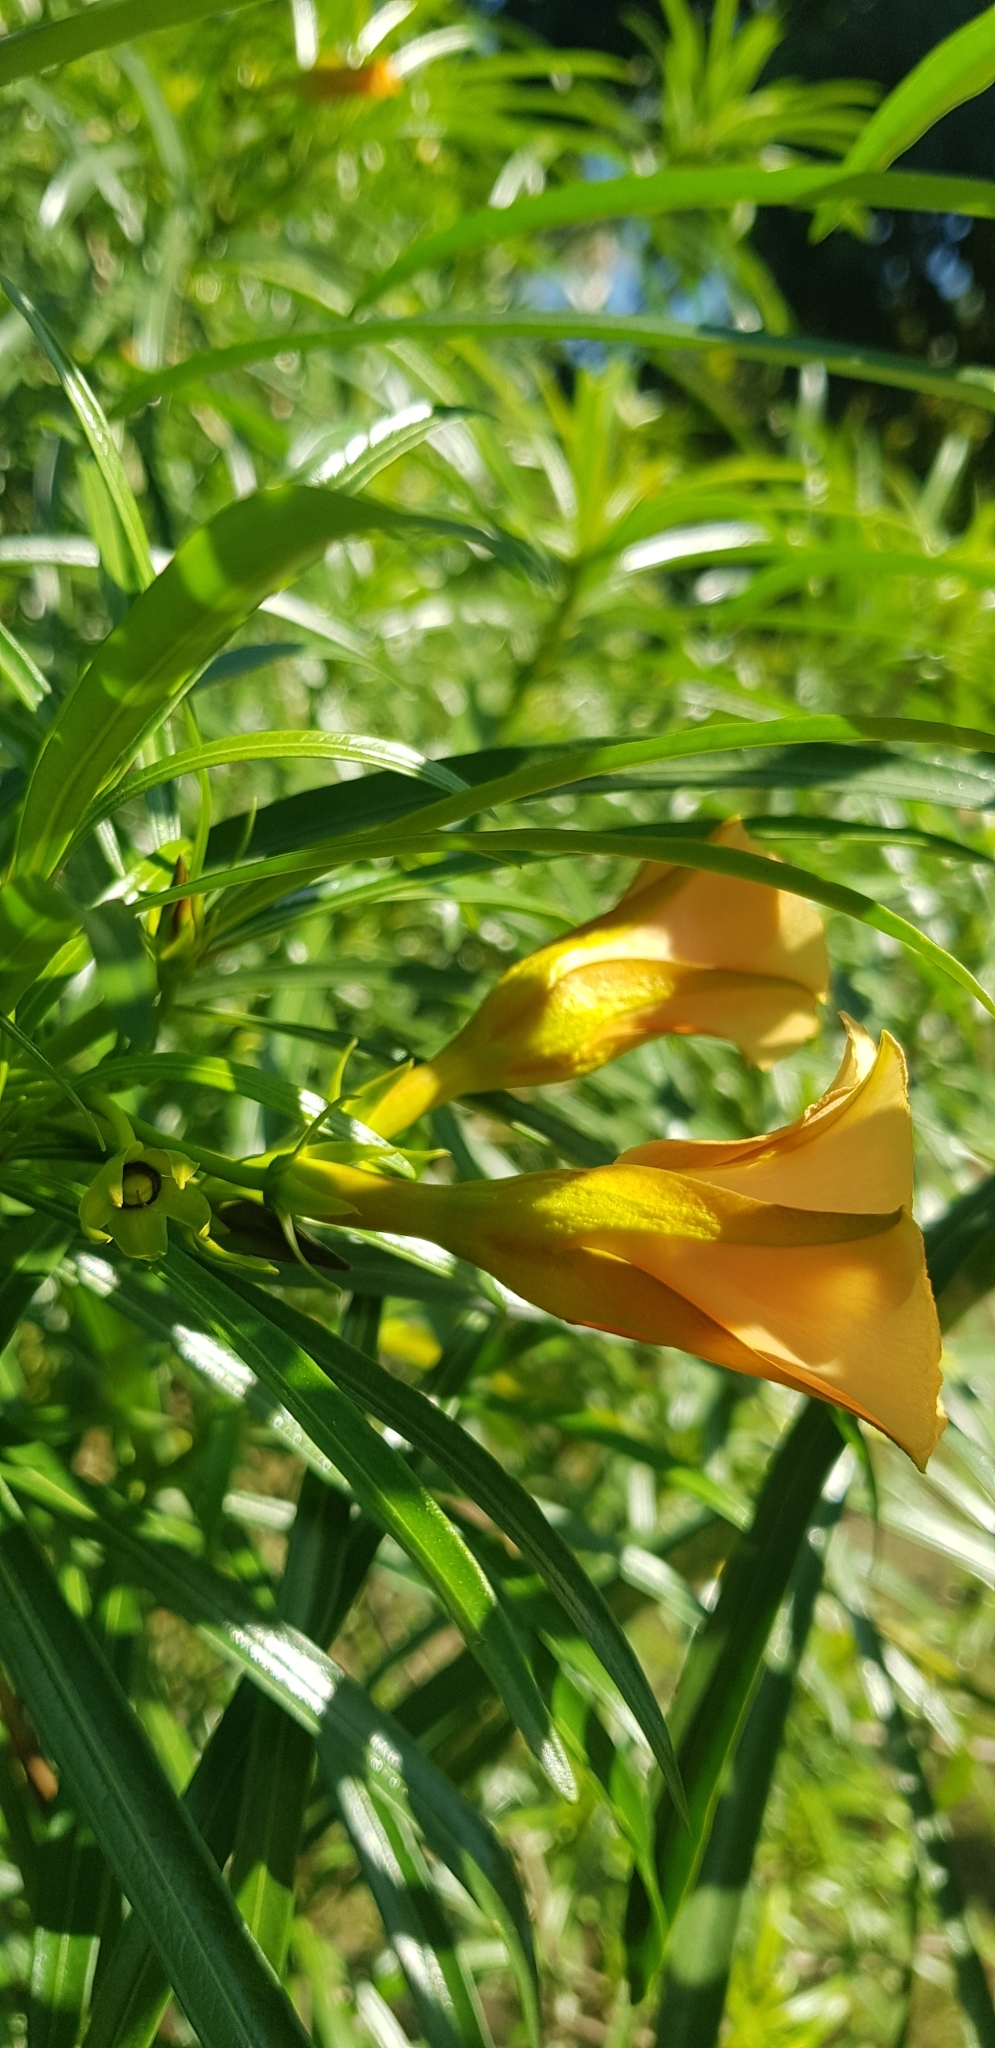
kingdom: Plantae
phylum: Tracheophyta
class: Magnoliopsida
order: Gentianales
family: Apocynaceae
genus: Cascabela
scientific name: Cascabela thevetia
